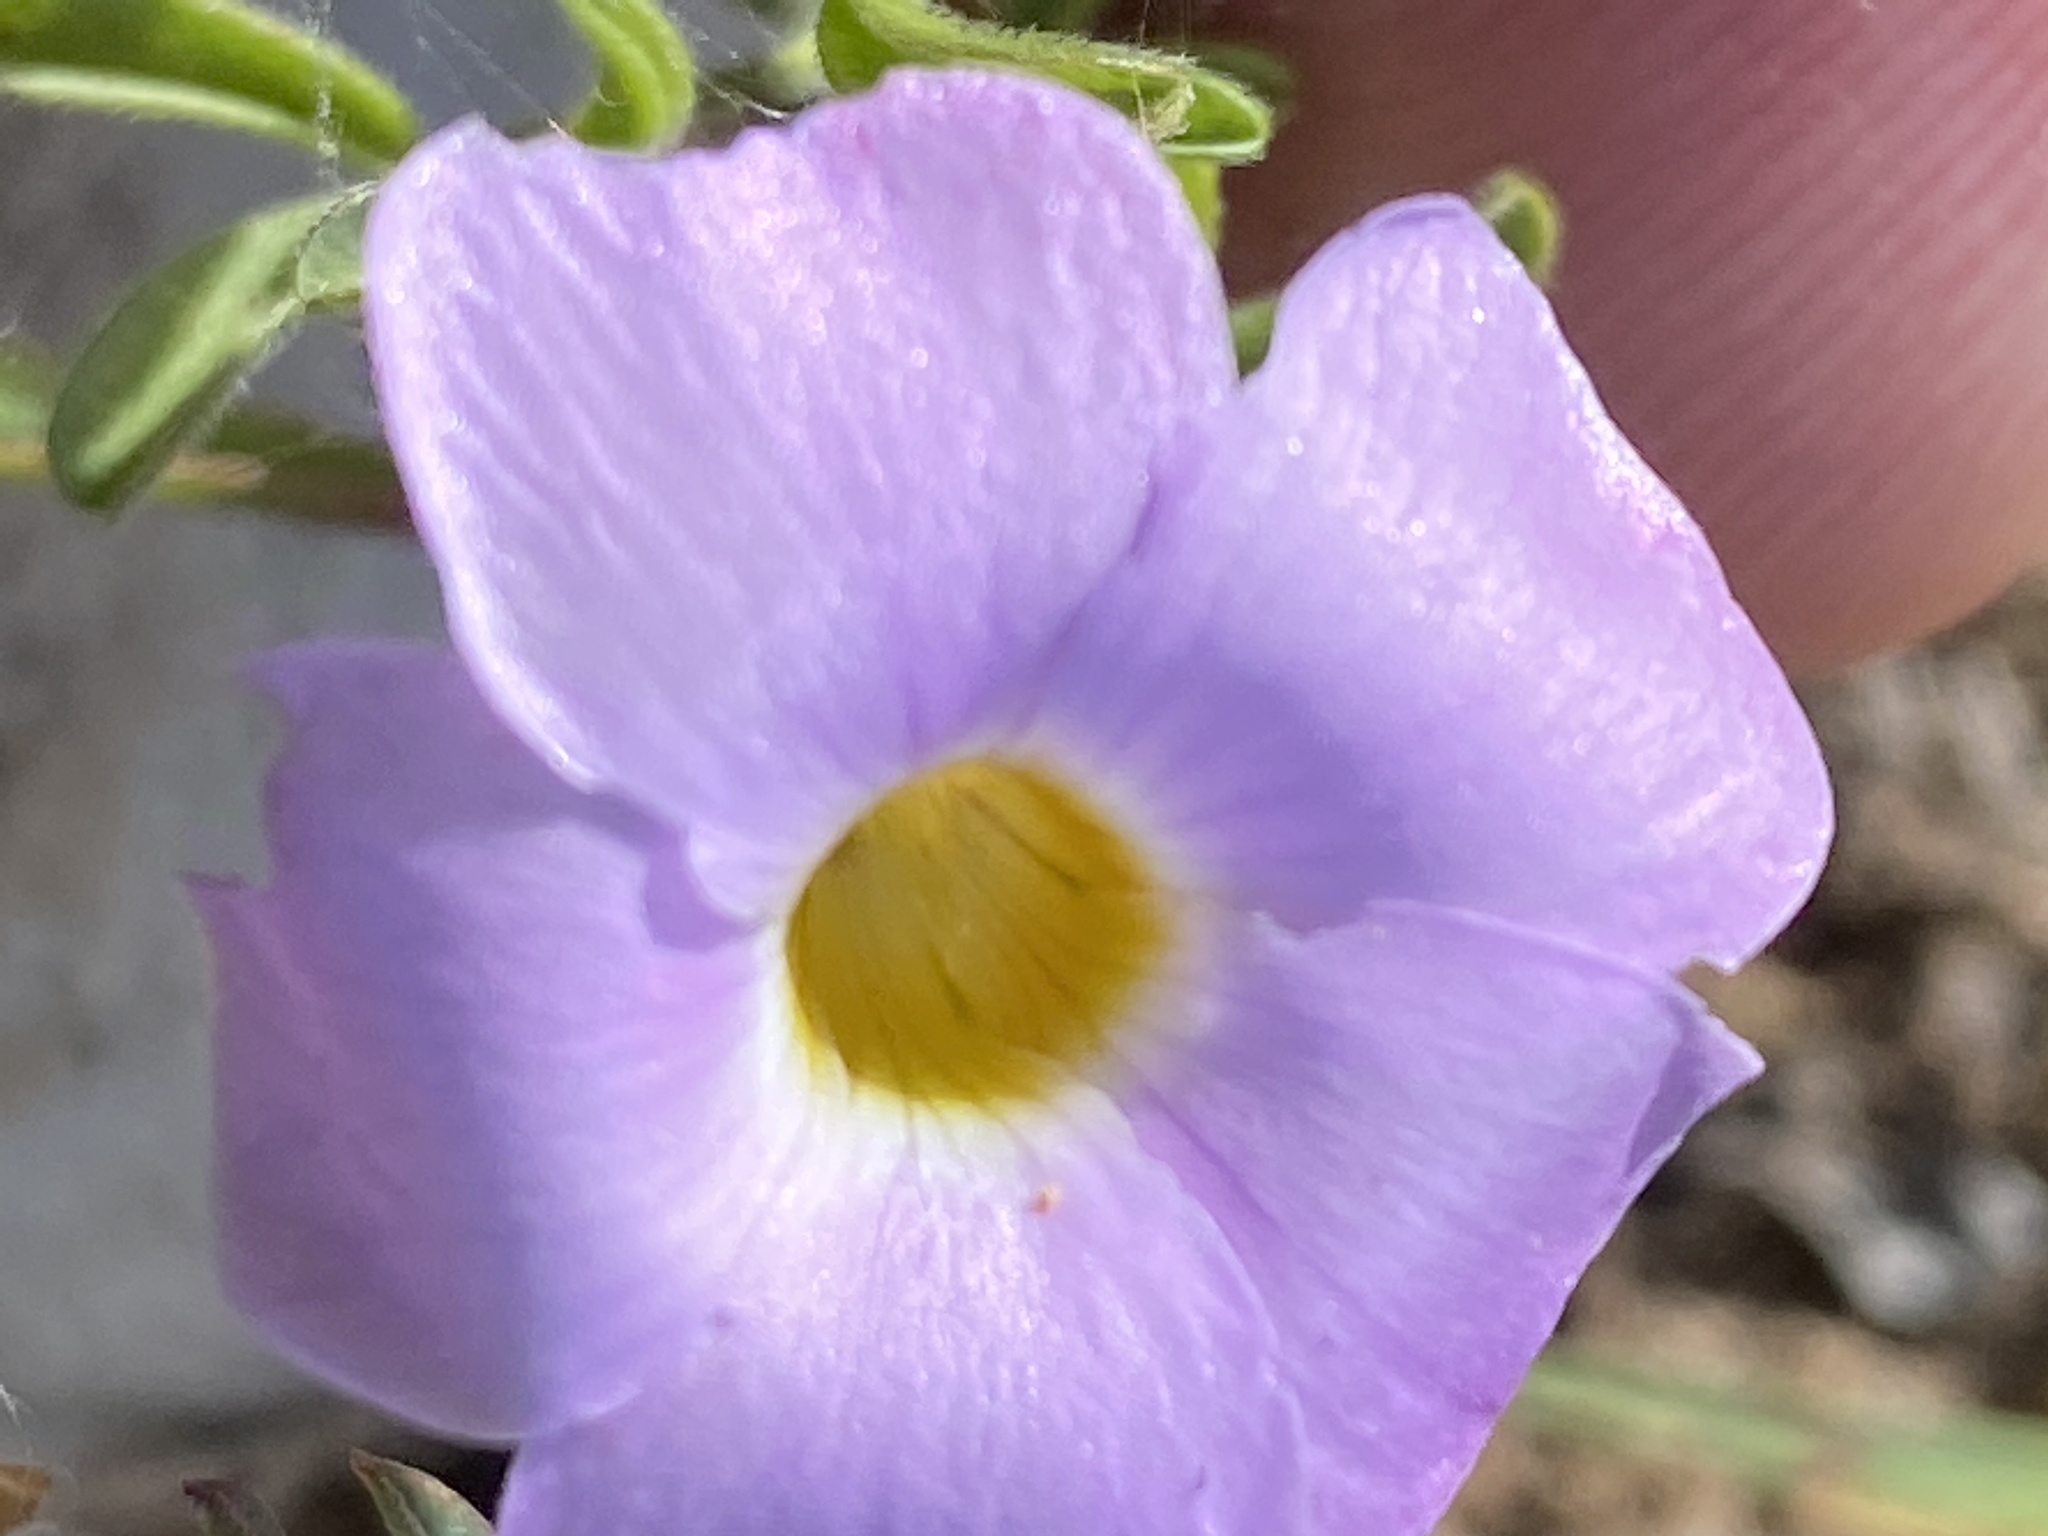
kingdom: Plantae
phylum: Tracheophyta
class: Magnoliopsida
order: Oxalidales
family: Oxalidaceae
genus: Oxalis
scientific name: Oxalis ciliaris
